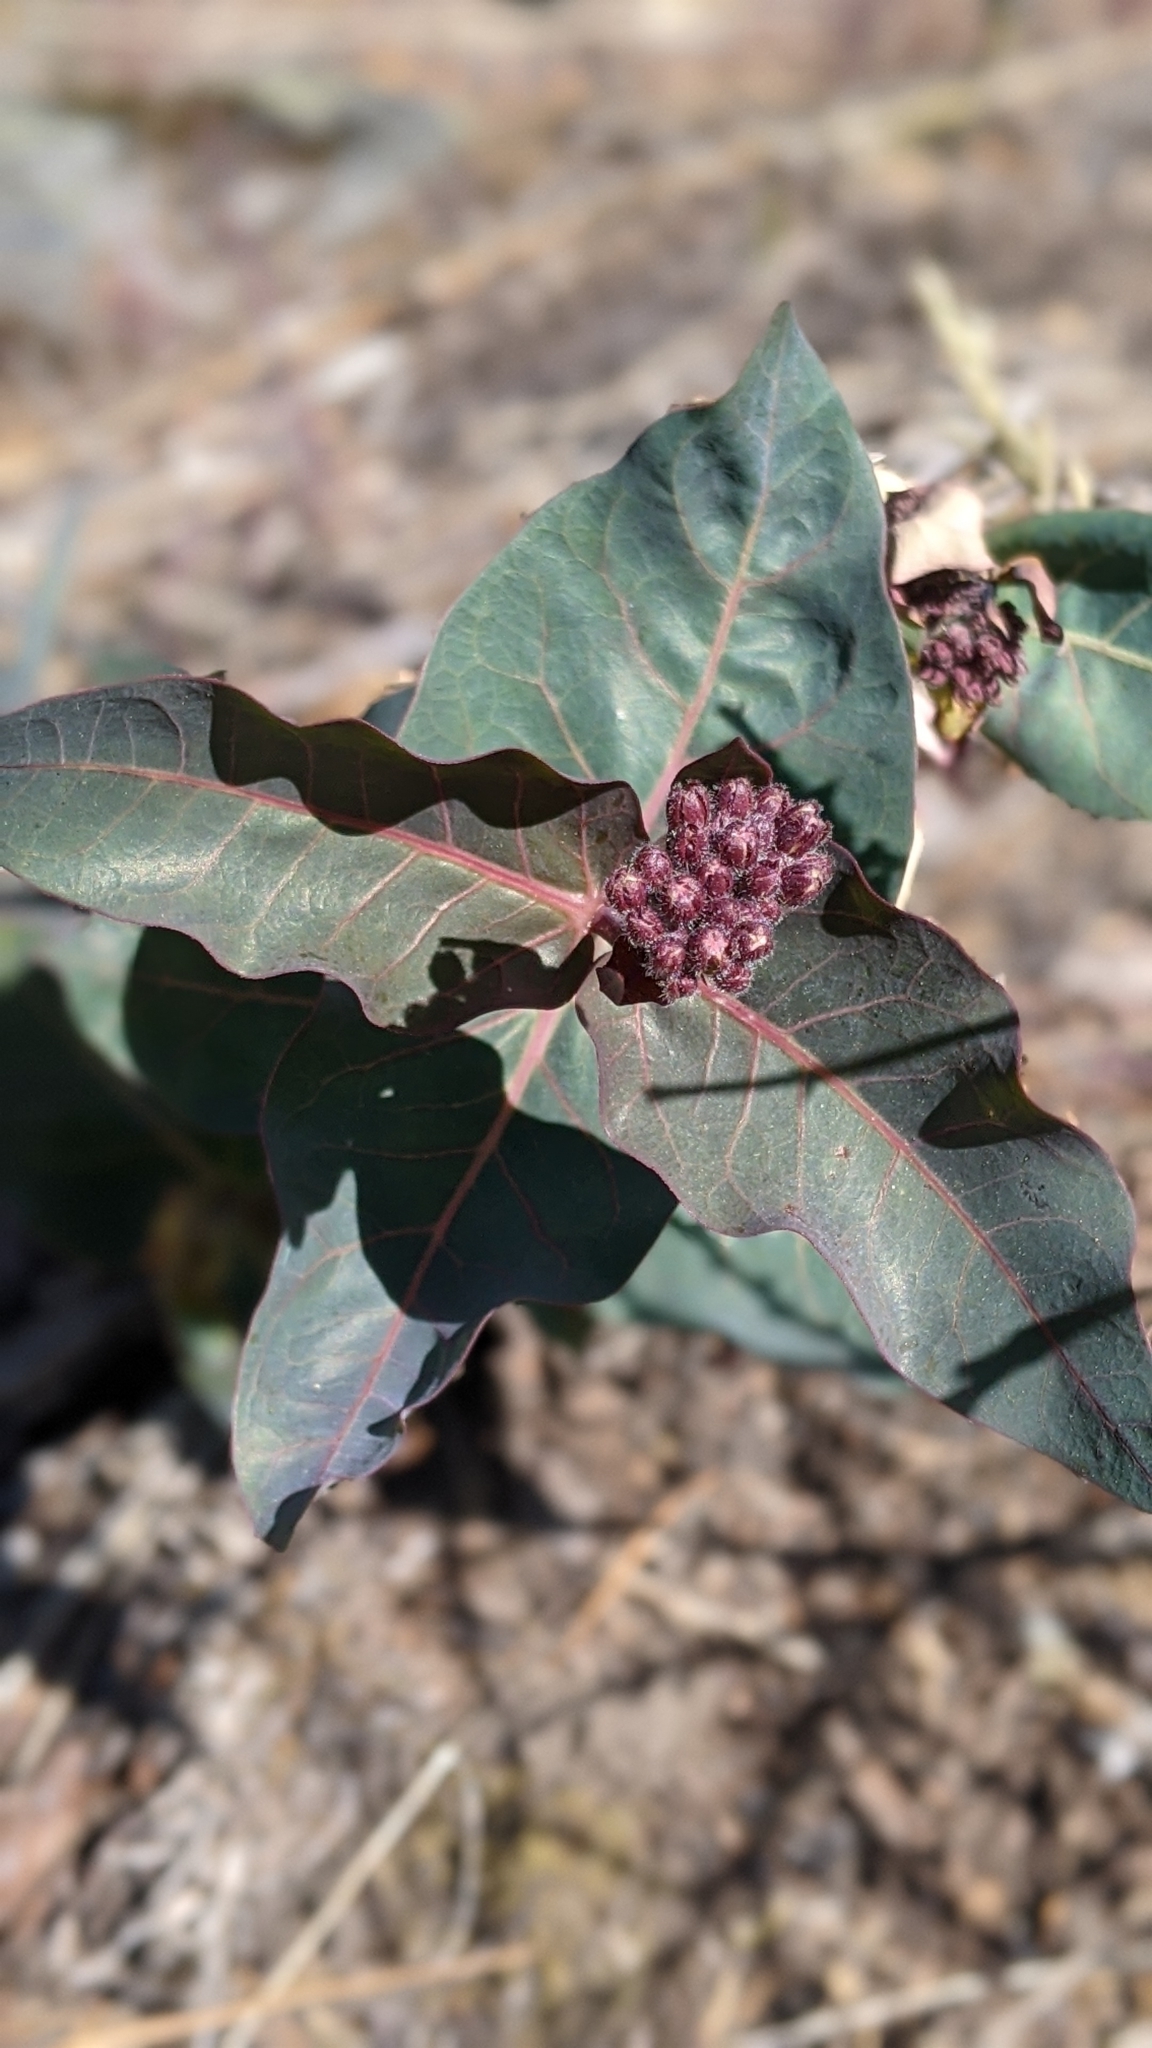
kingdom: Plantae
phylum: Tracheophyta
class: Magnoliopsida
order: Gentianales
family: Apocynaceae
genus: Asclepias
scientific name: Asclepias cordifolia
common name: Purple milkweed
